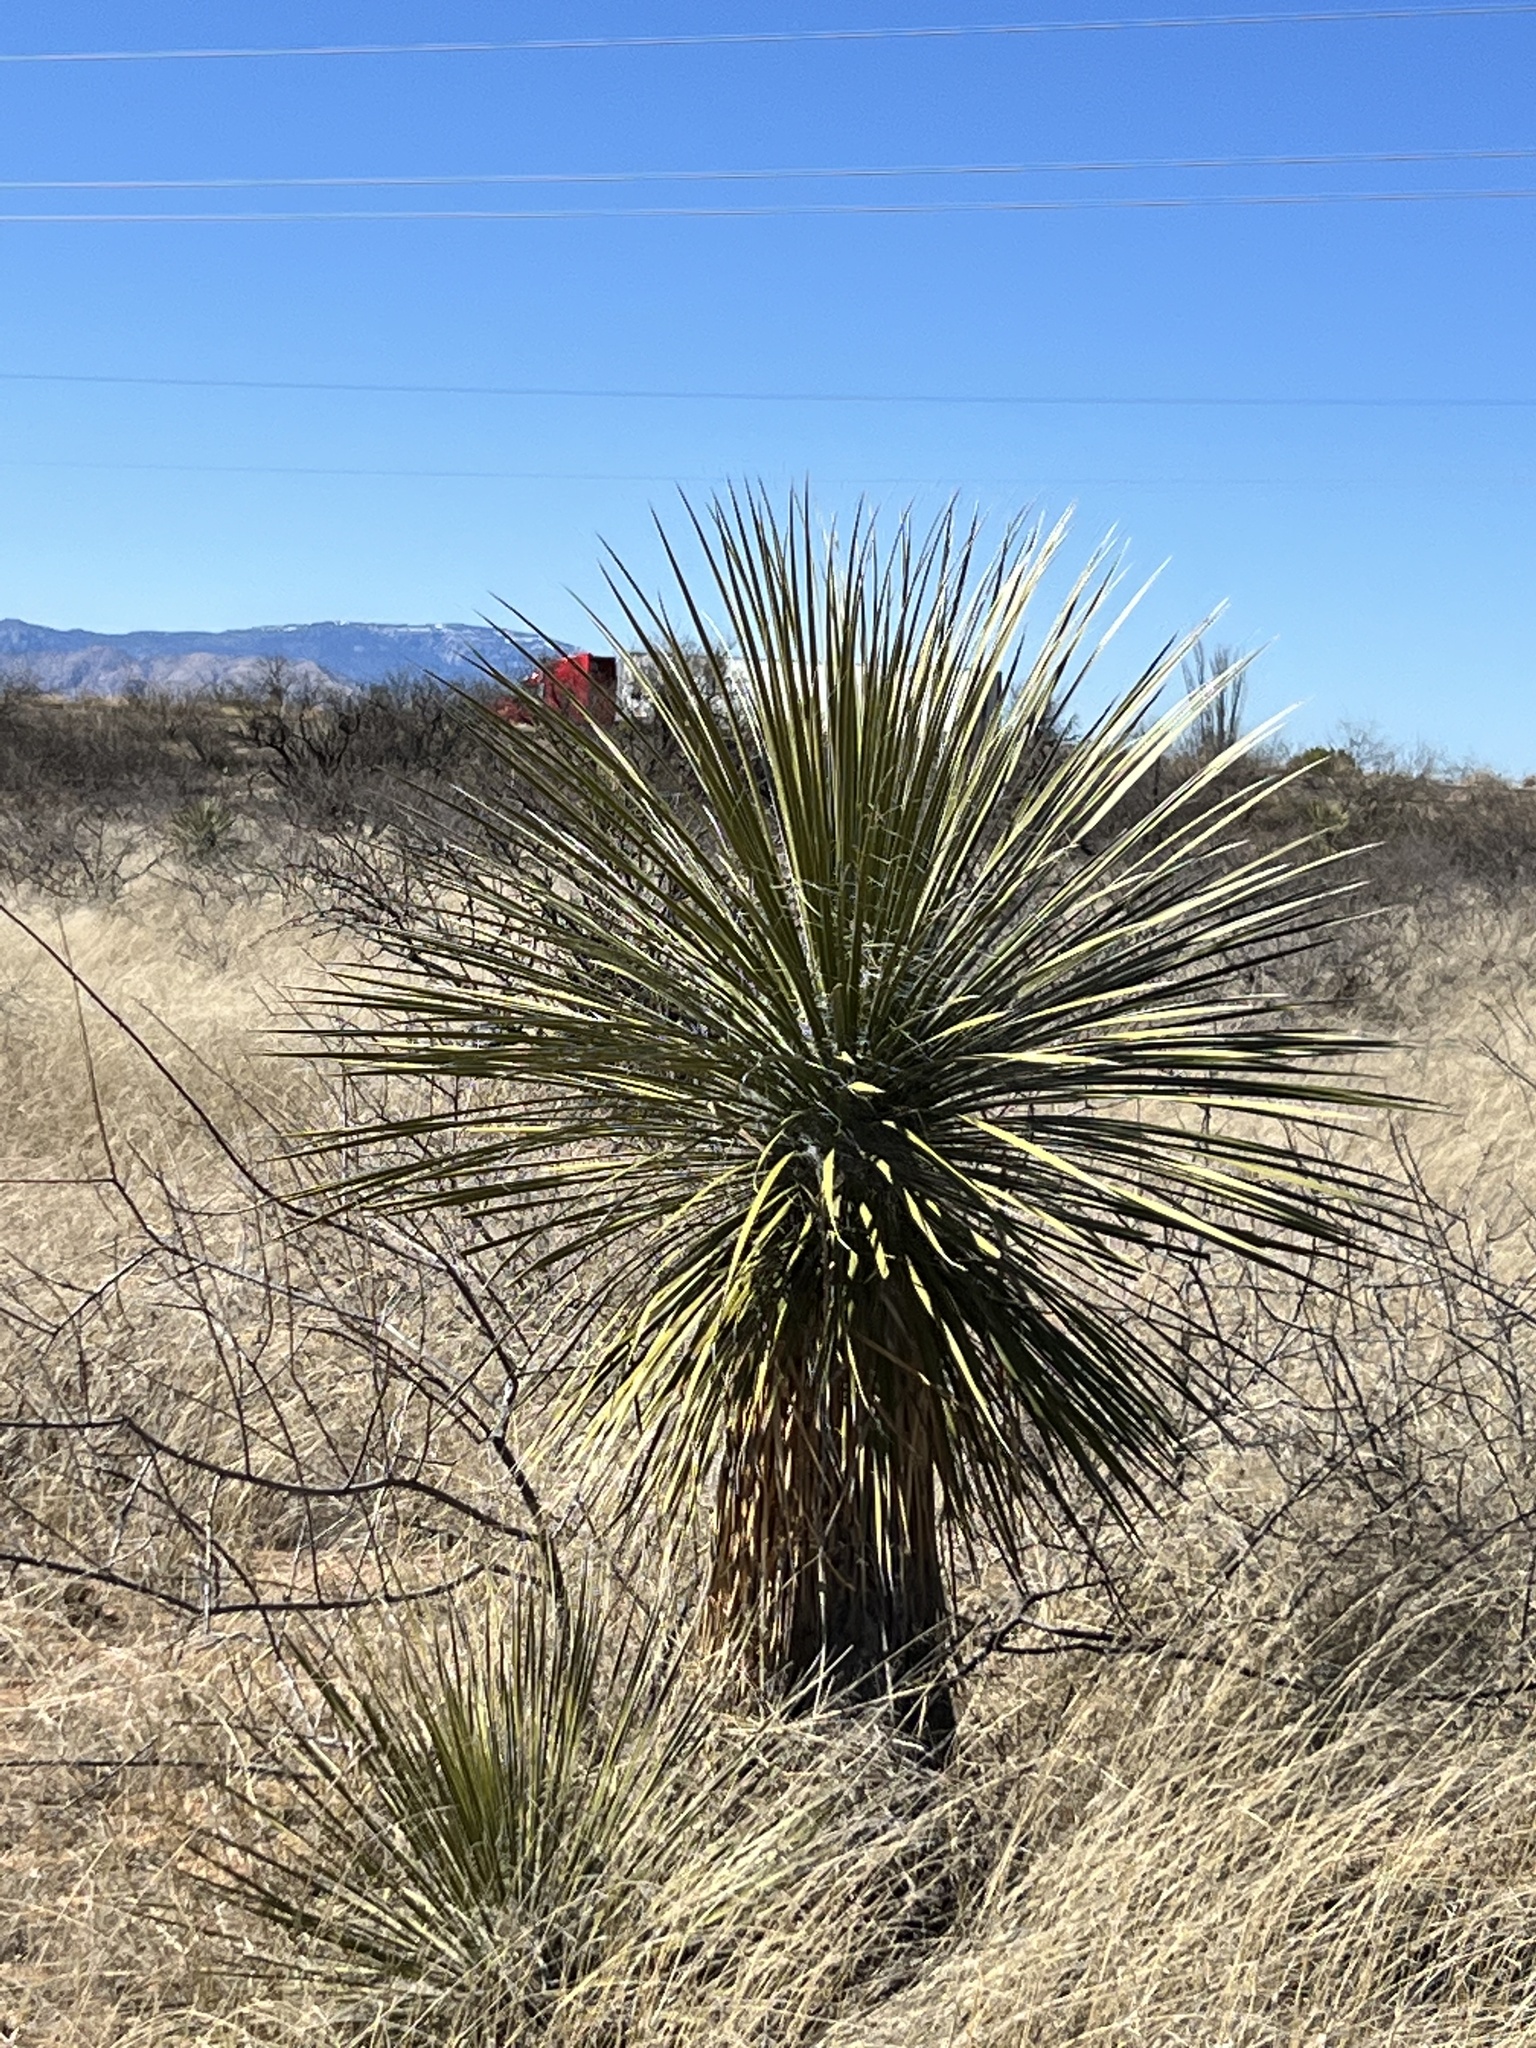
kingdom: Plantae
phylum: Tracheophyta
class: Liliopsida
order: Asparagales
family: Asparagaceae
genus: Yucca
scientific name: Yucca elata
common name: Palmella
